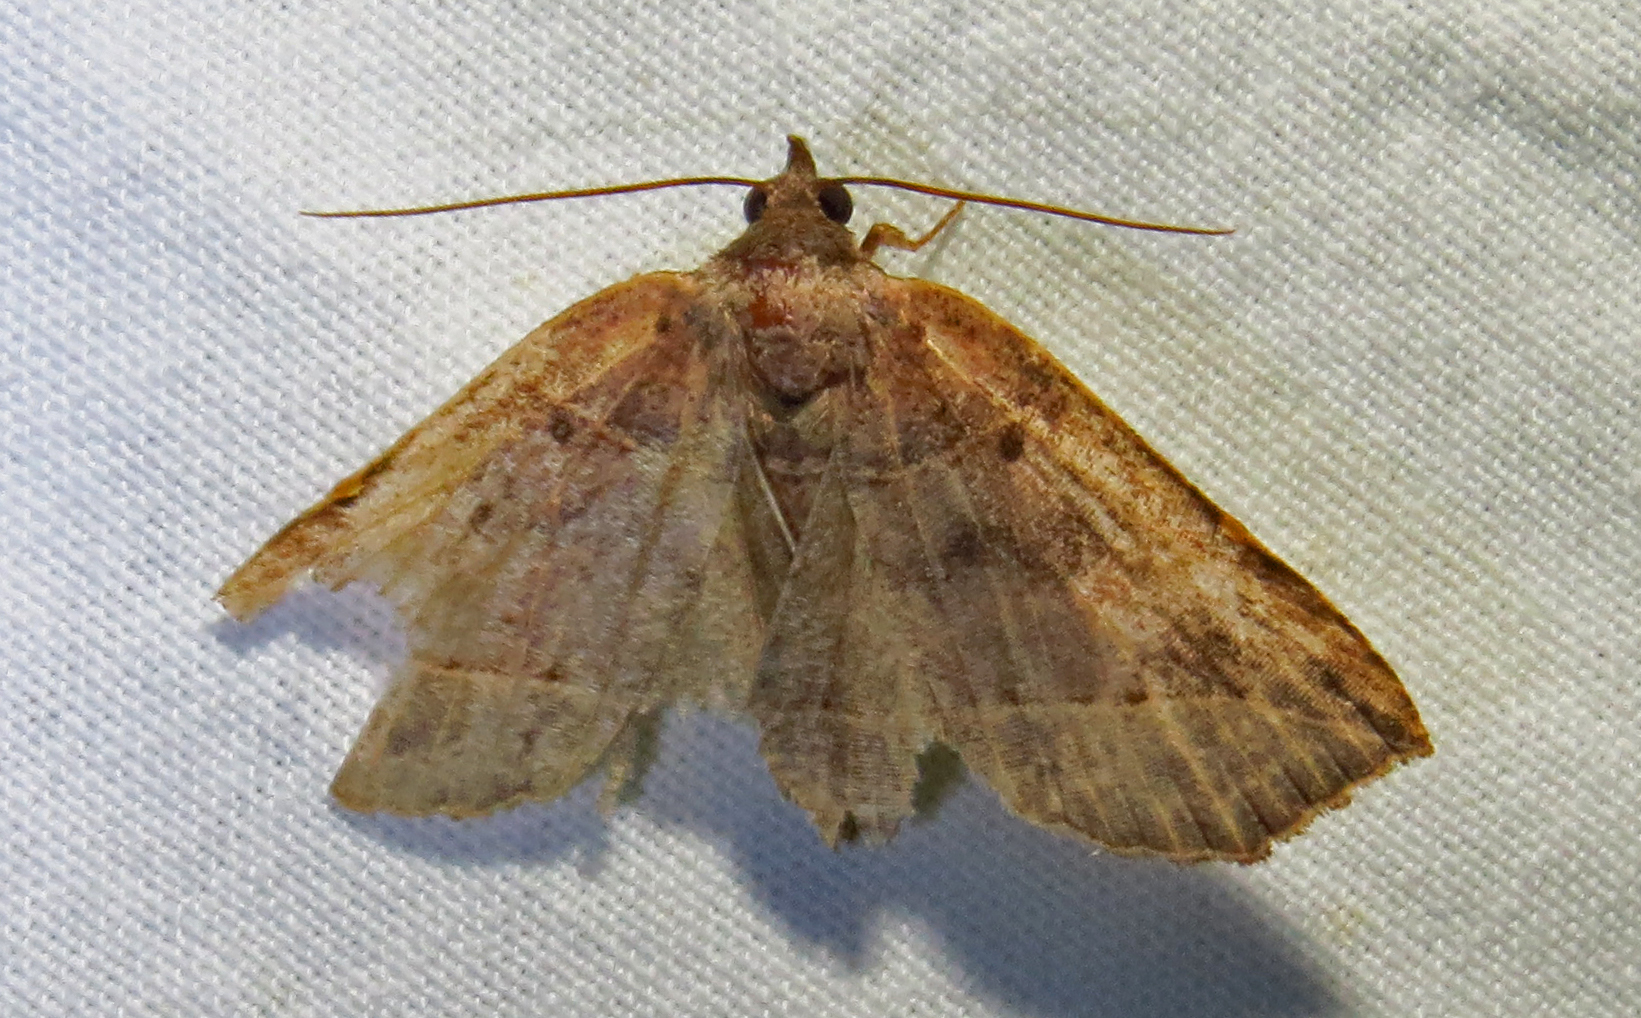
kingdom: Animalia
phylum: Arthropoda
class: Insecta
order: Lepidoptera
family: Erebidae
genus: Isogona
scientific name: Isogona tenuis
